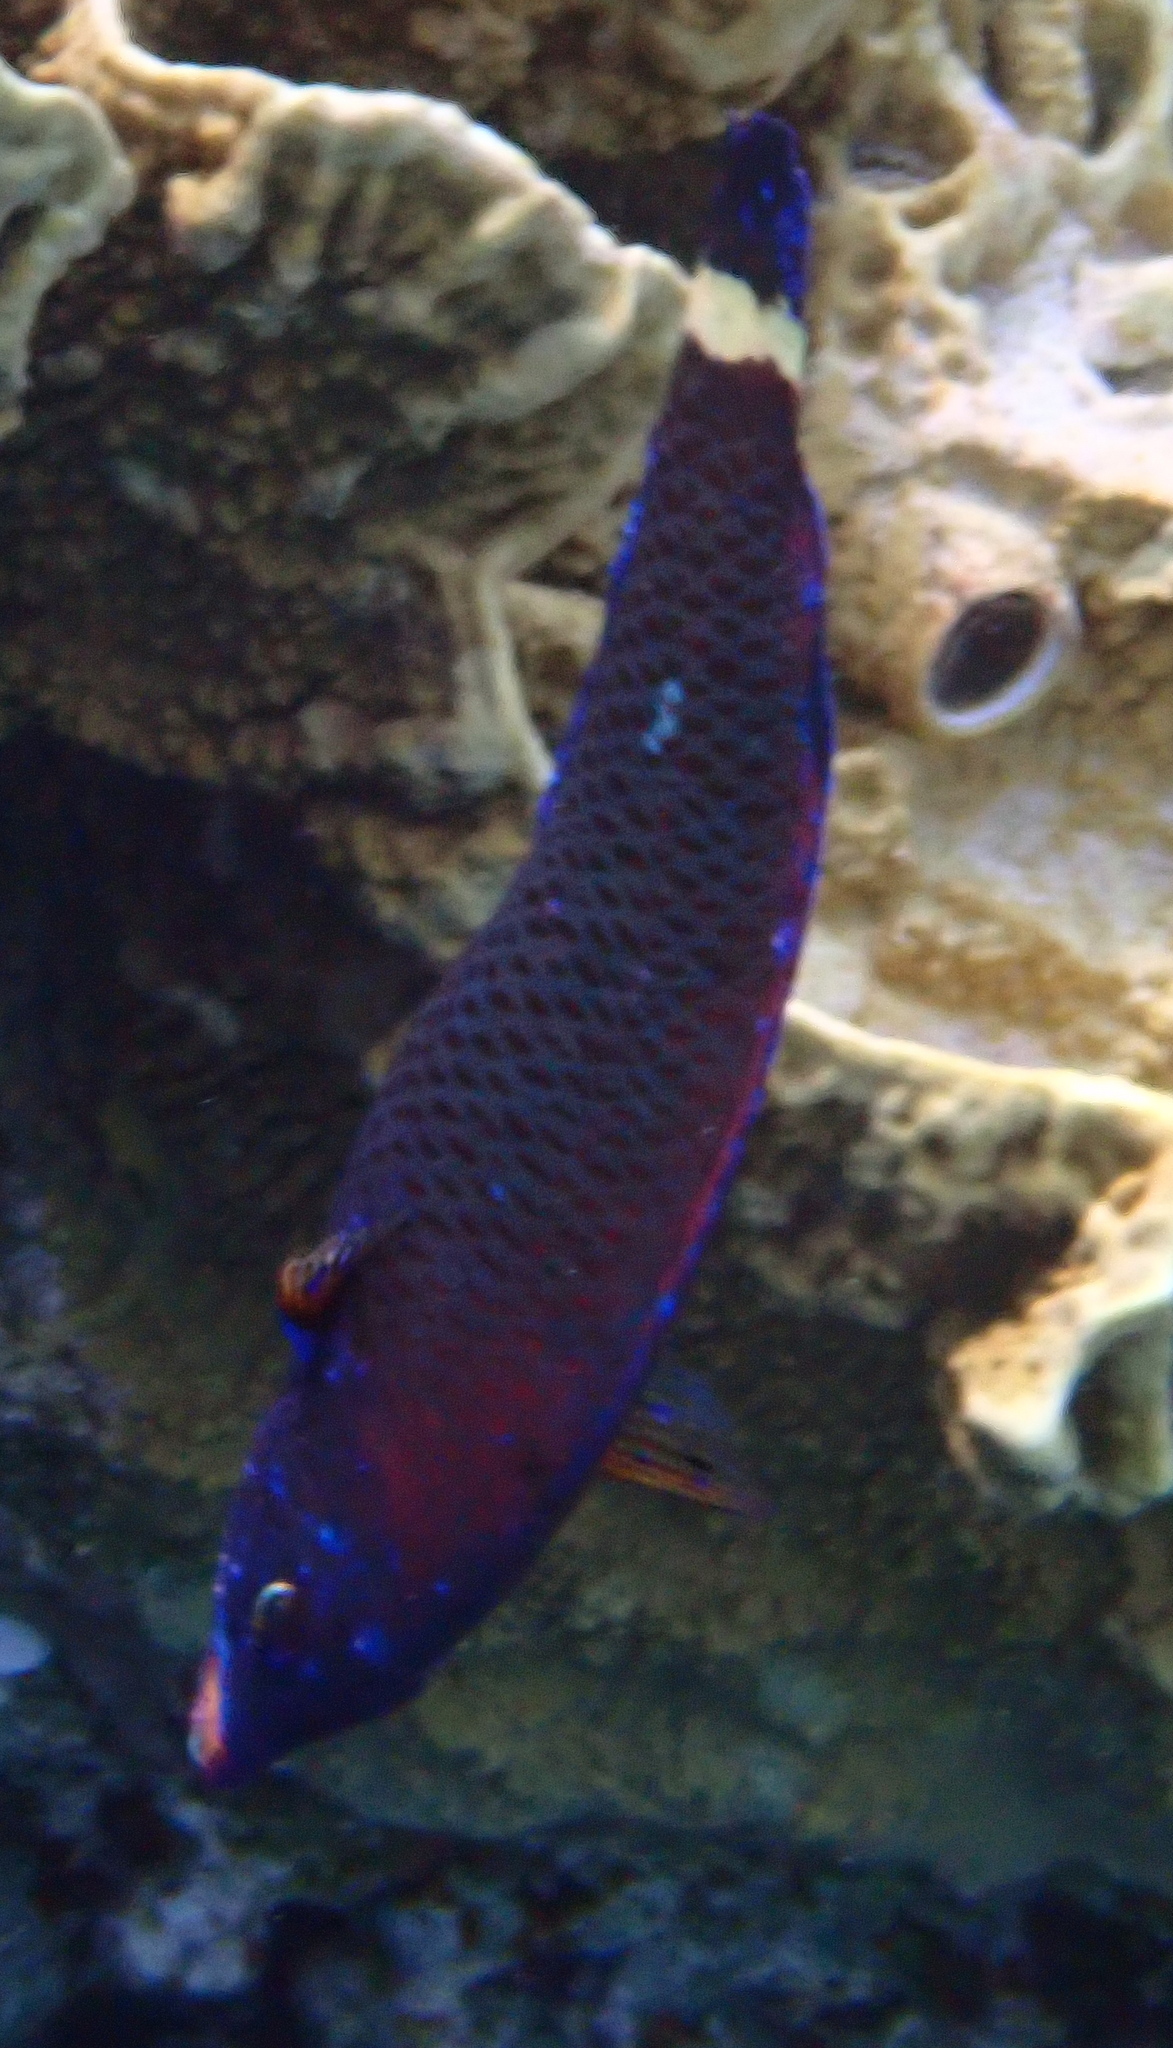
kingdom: Animalia
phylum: Chordata
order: Perciformes
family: Labridae
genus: Pseudodax
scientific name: Pseudodax moluccanus
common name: Chiseltooth wrasse
